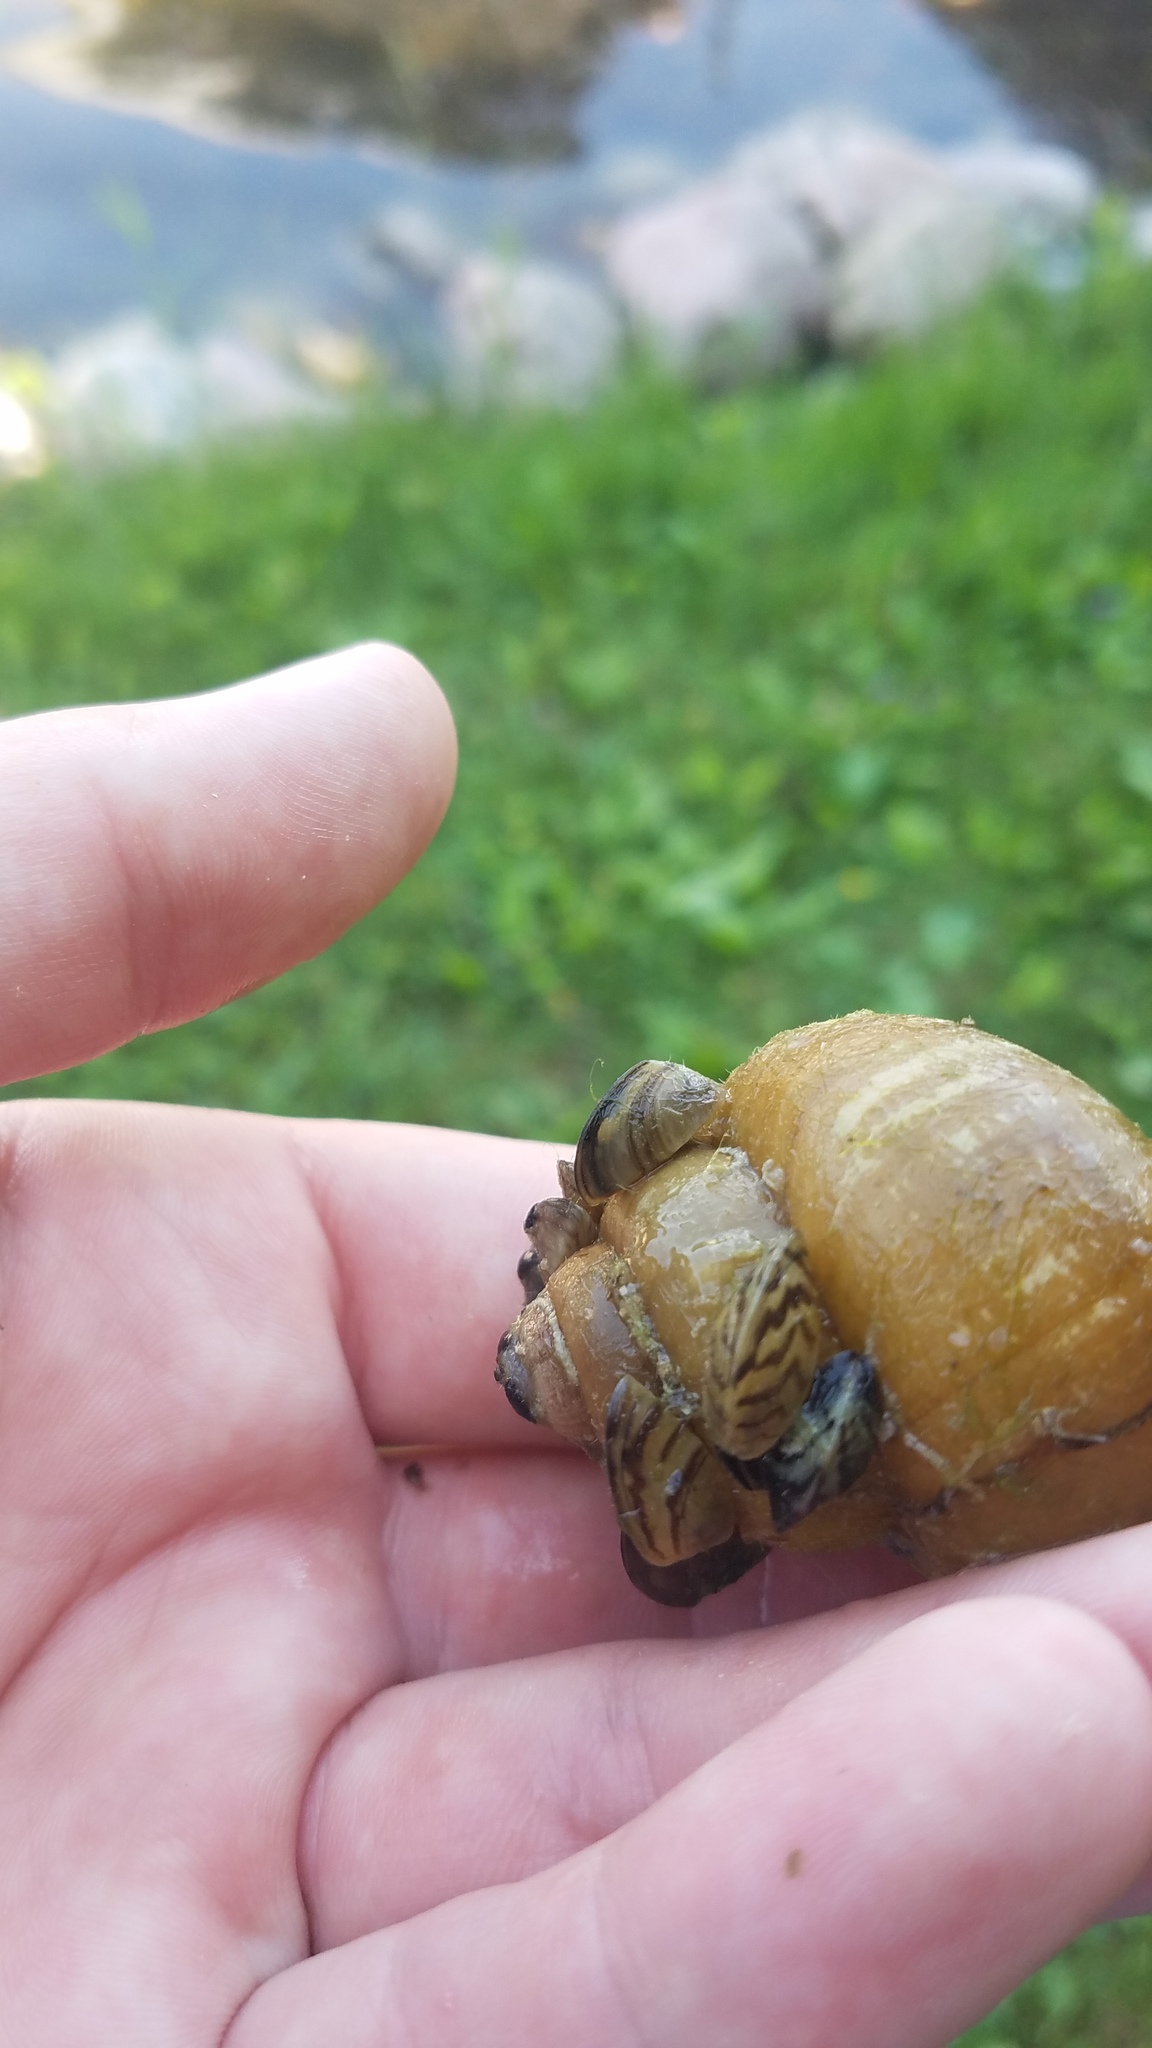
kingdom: Animalia
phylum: Mollusca
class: Bivalvia
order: Myida
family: Dreissenidae
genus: Dreissena
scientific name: Dreissena polymorpha
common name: Zebra mussel
